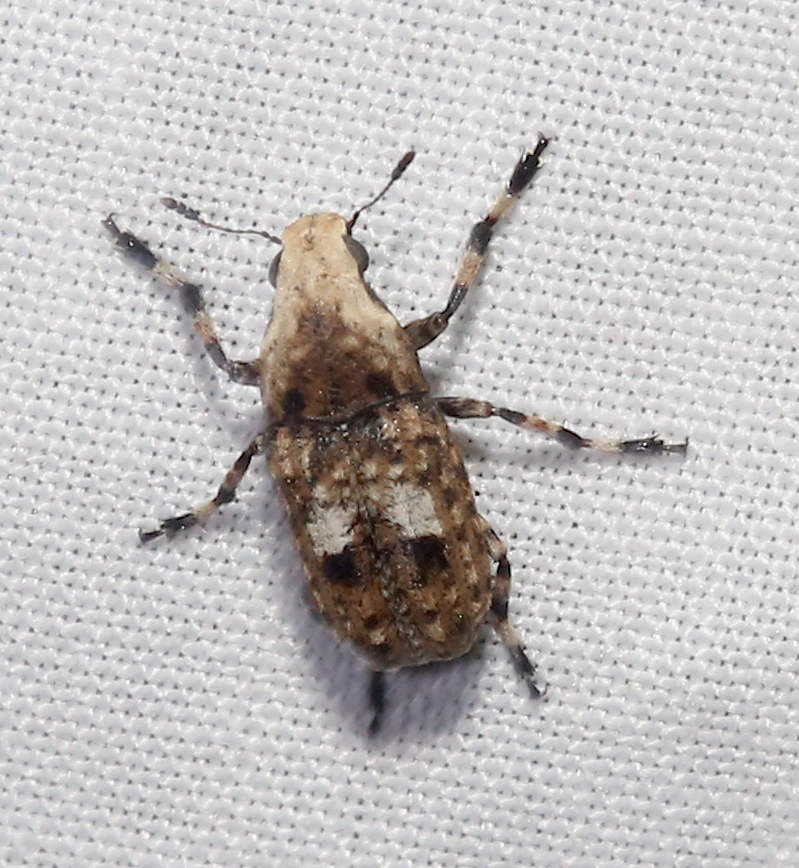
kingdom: Animalia
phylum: Arthropoda
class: Insecta
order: Coleoptera
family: Anthribidae
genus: Euparius
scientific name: Euparius marmoreus
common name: Marbled fungus weevil
